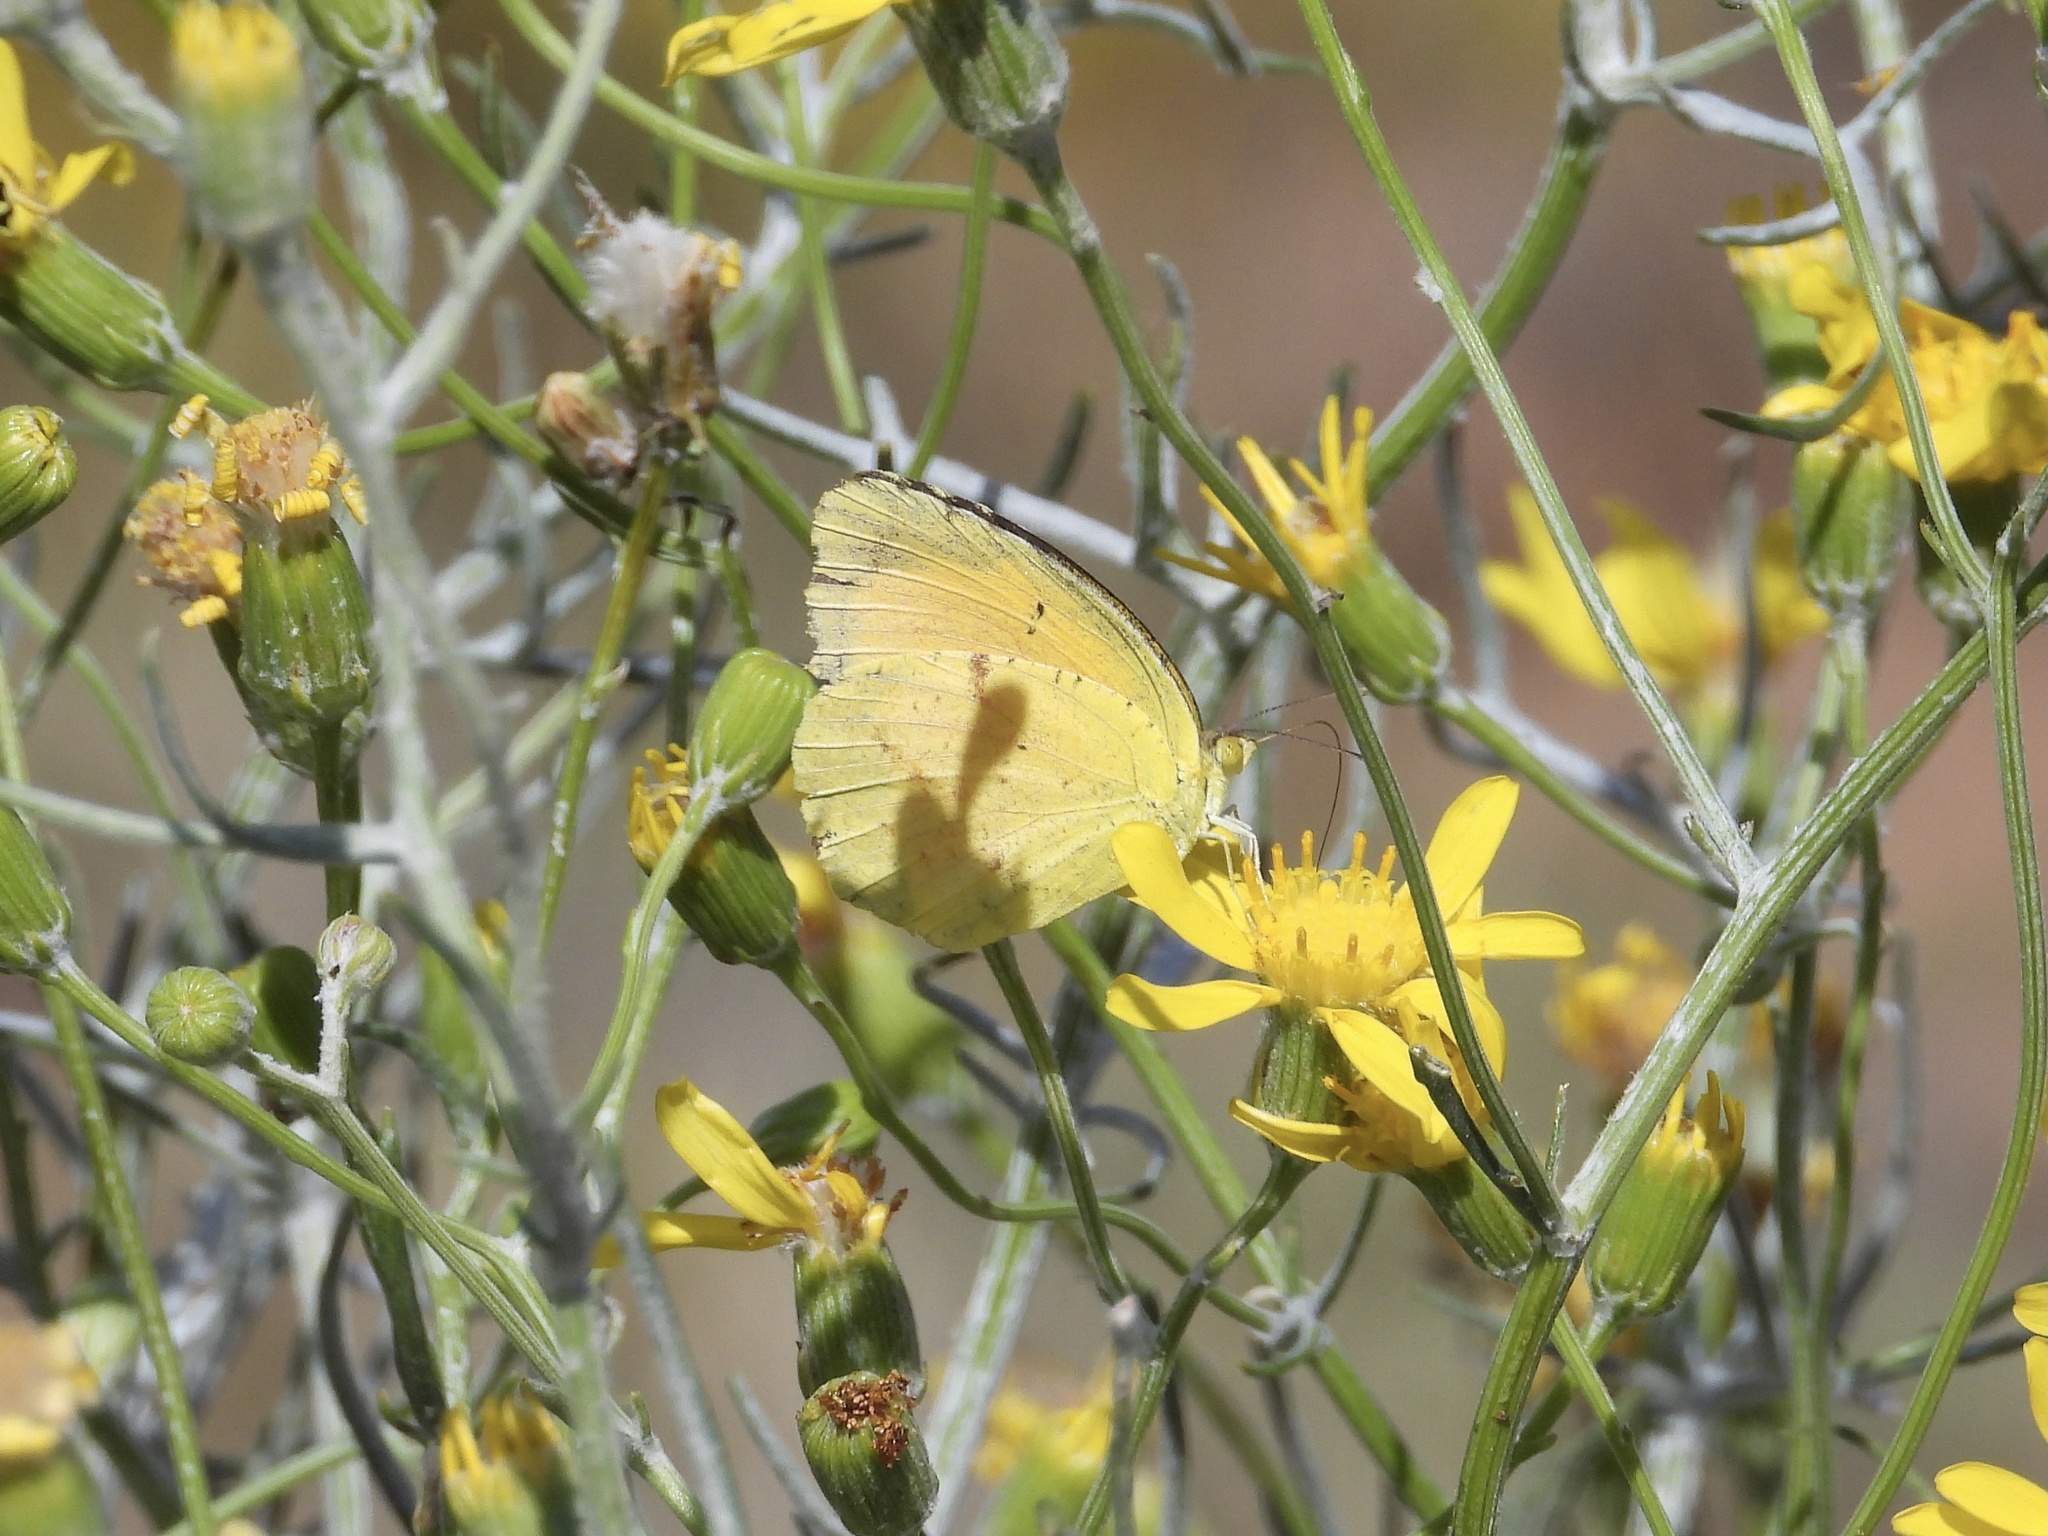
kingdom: Animalia
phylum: Arthropoda
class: Insecta
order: Lepidoptera
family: Pieridae
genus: Abaeis
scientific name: Abaeis nicippe
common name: Sleepy orange
